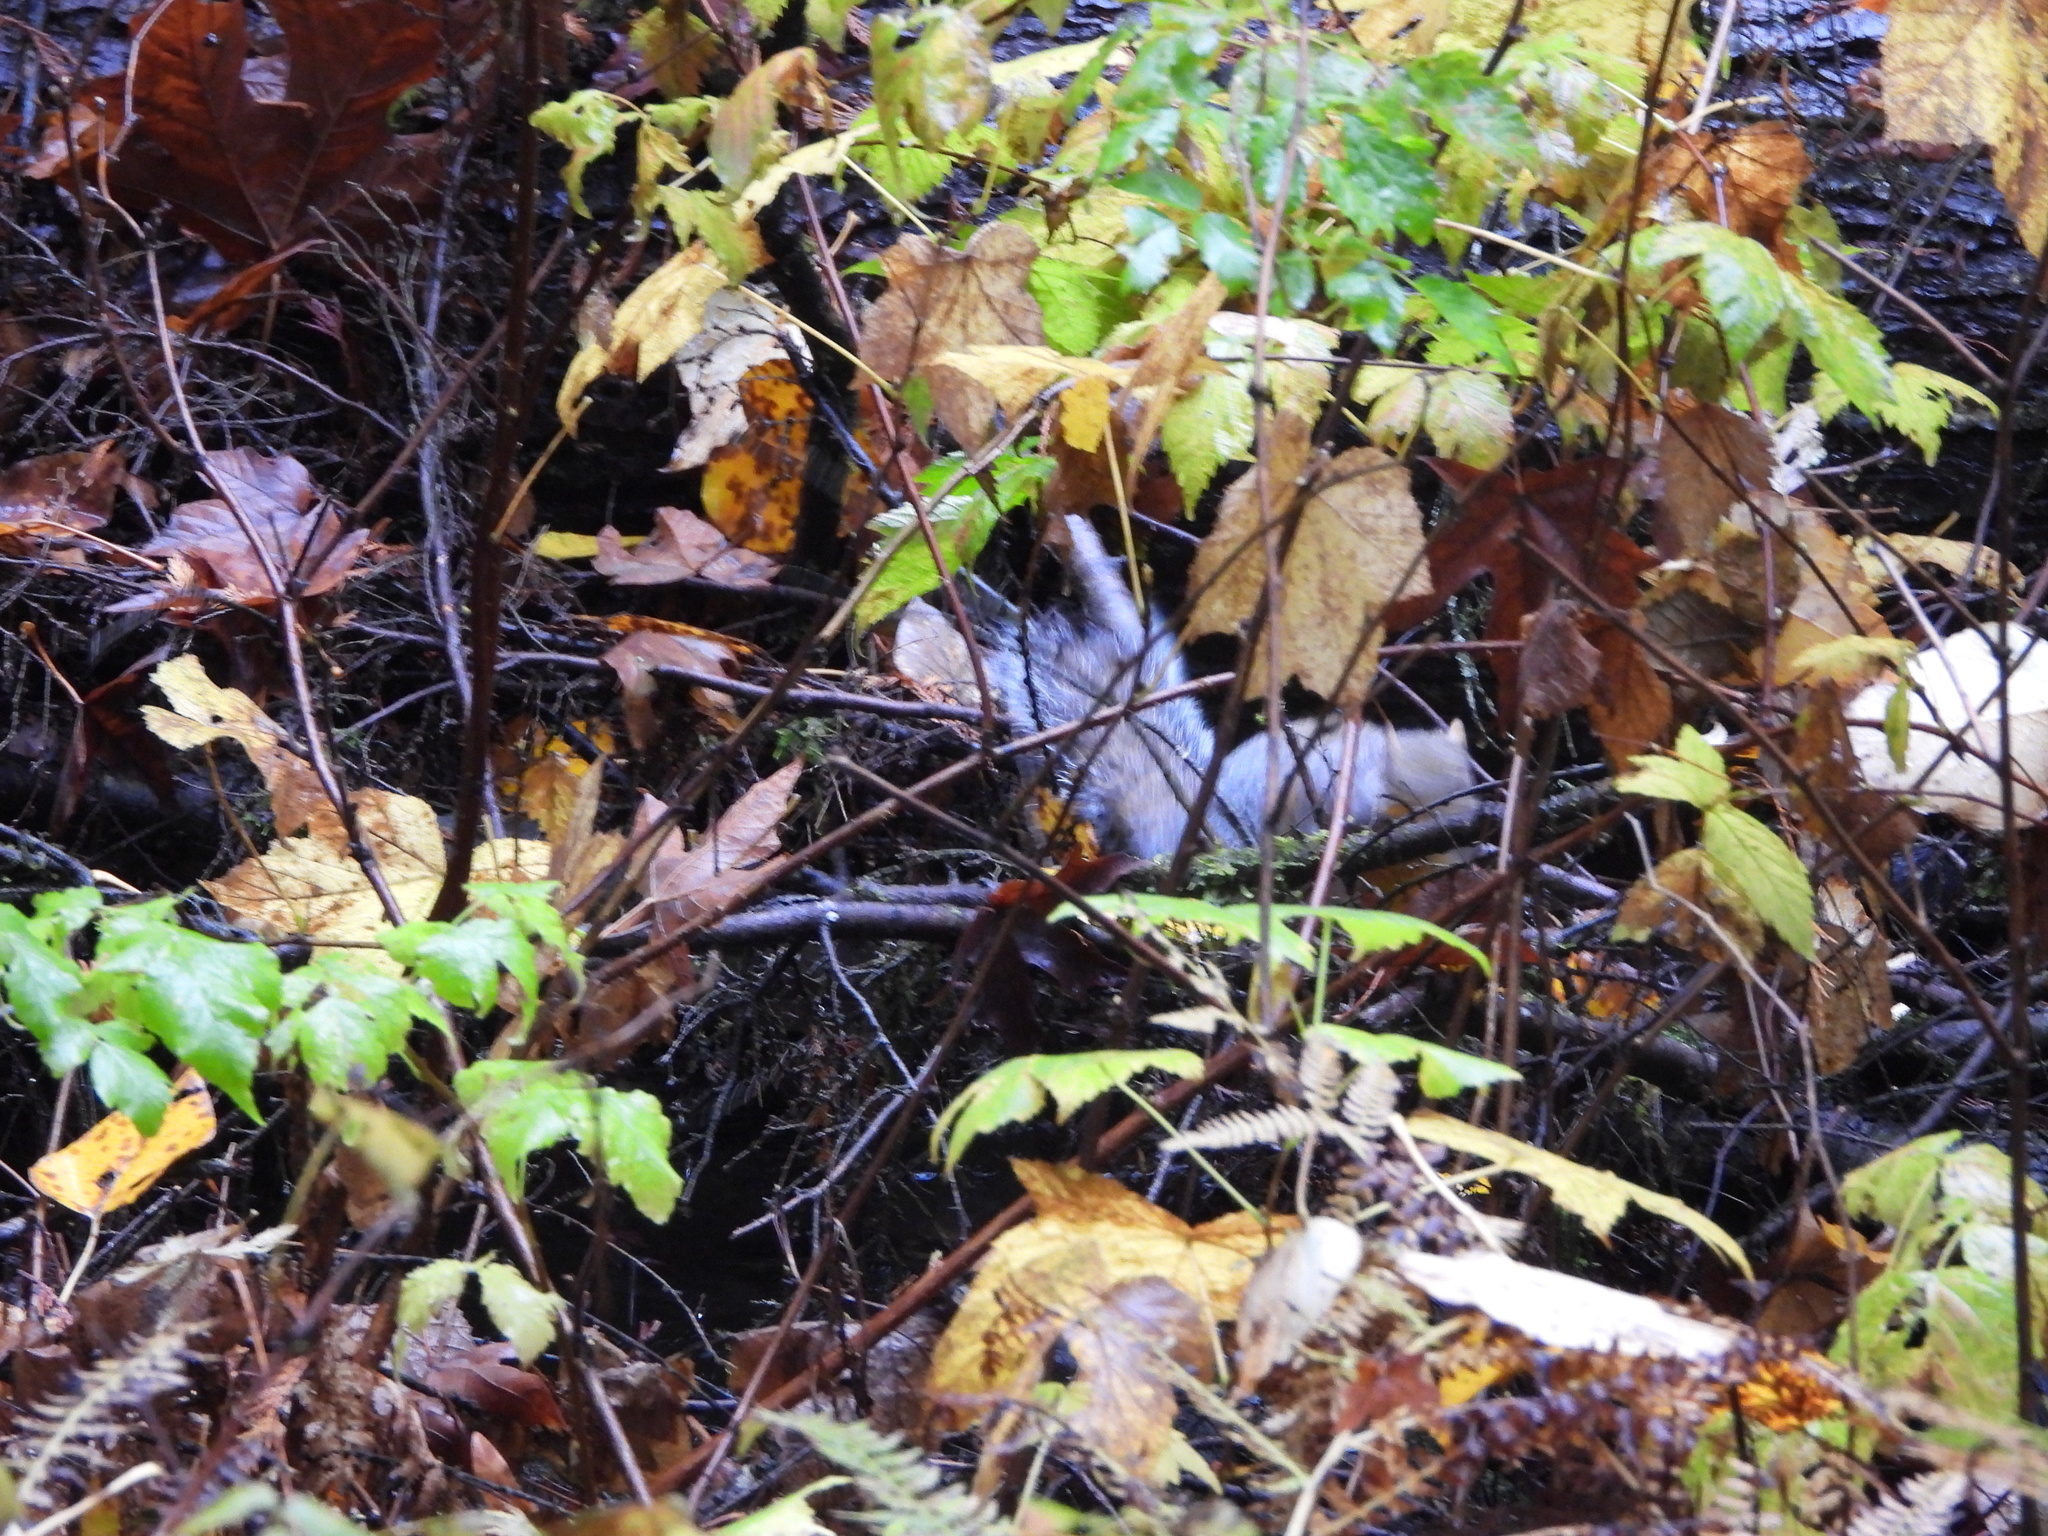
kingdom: Animalia
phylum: Chordata
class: Mammalia
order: Rodentia
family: Sciuridae
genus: Sciurus
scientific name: Sciurus carolinensis
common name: Eastern gray squirrel
